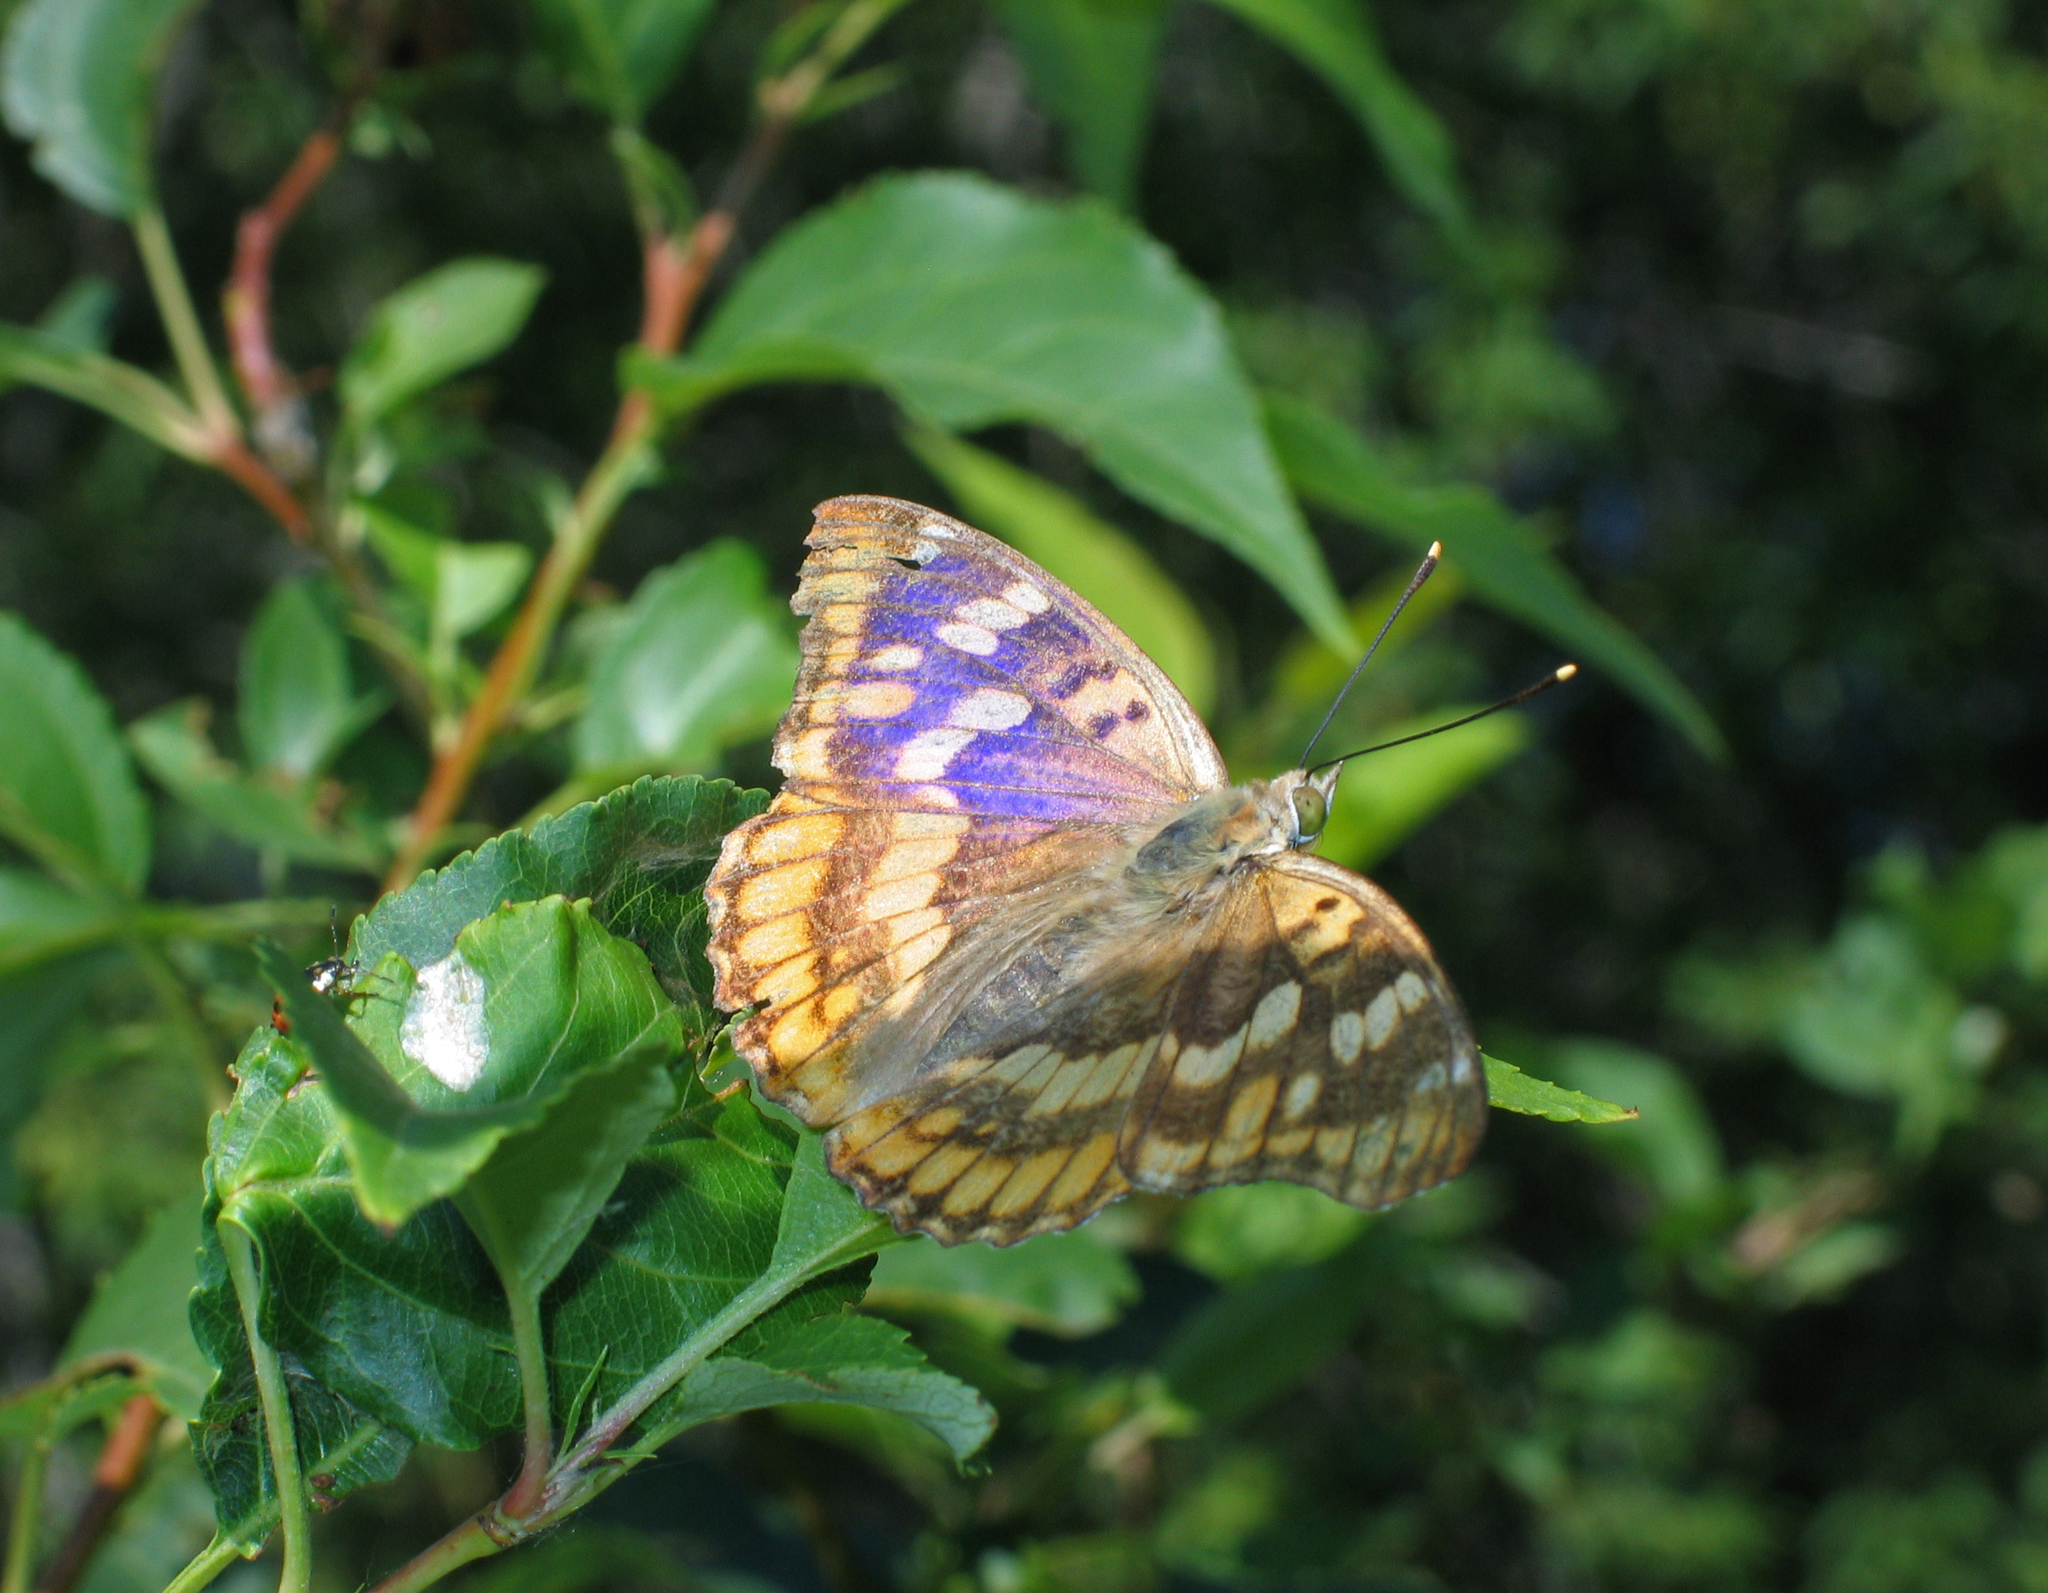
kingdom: Animalia
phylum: Arthropoda
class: Insecta
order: Lepidoptera
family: Nymphalidae
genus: Apatura
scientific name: Apatura ilia
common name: Lesser purple emperor
